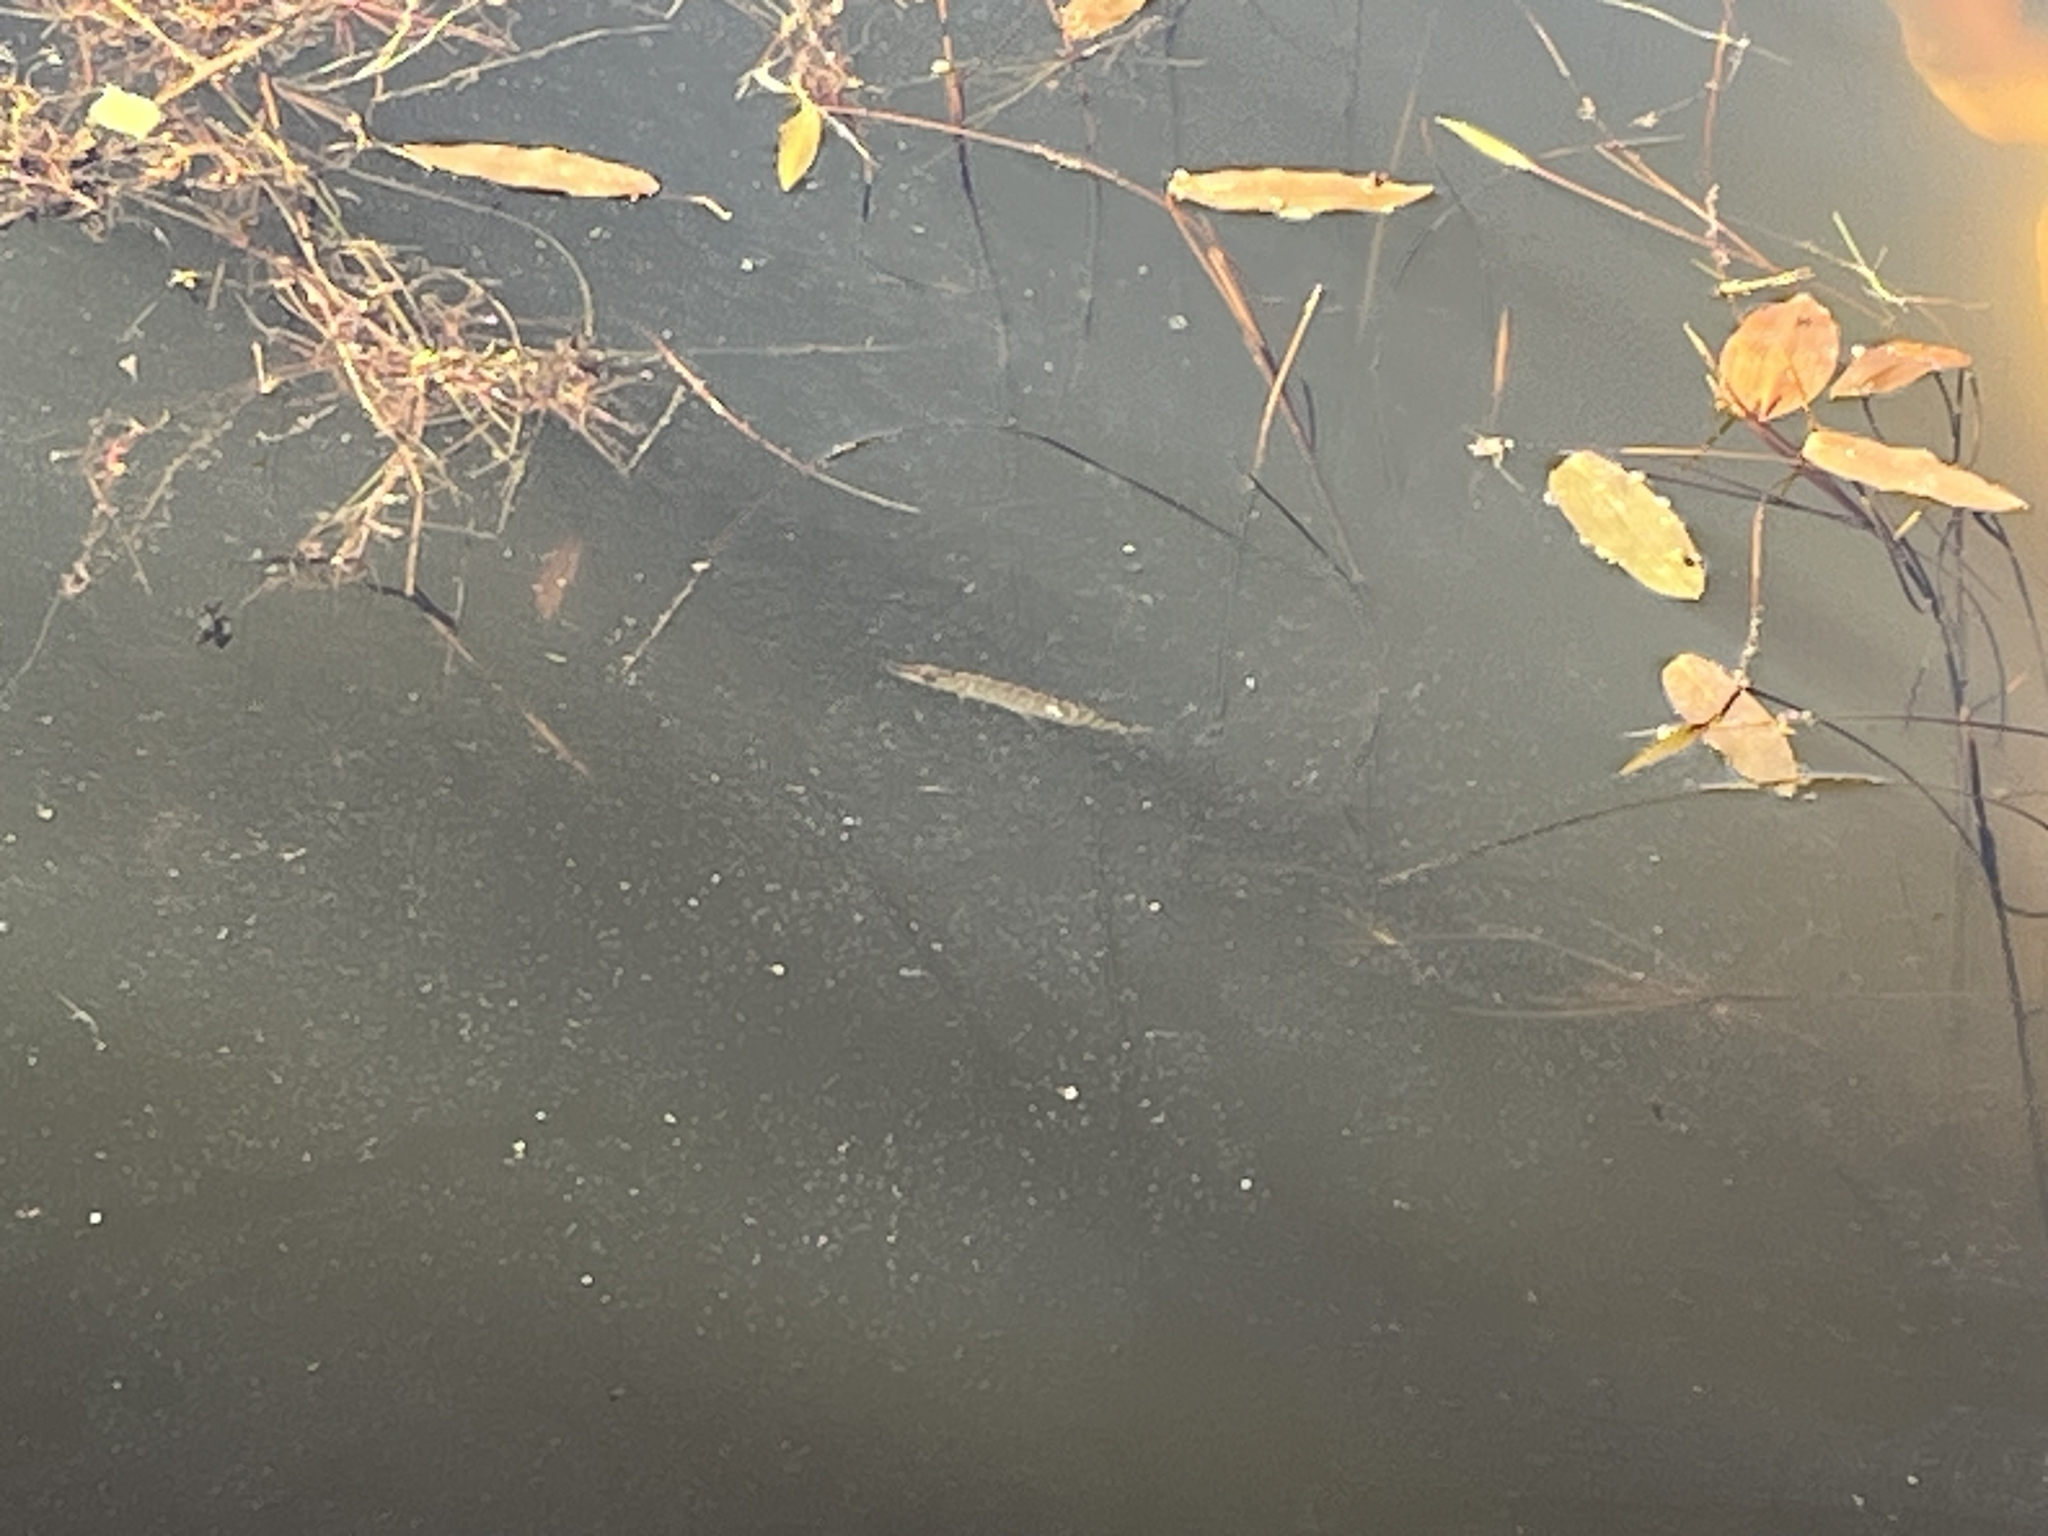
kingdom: Animalia
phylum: Chordata
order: Esociformes
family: Esocidae
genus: Esox
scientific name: Esox lucius
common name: Northern pike
